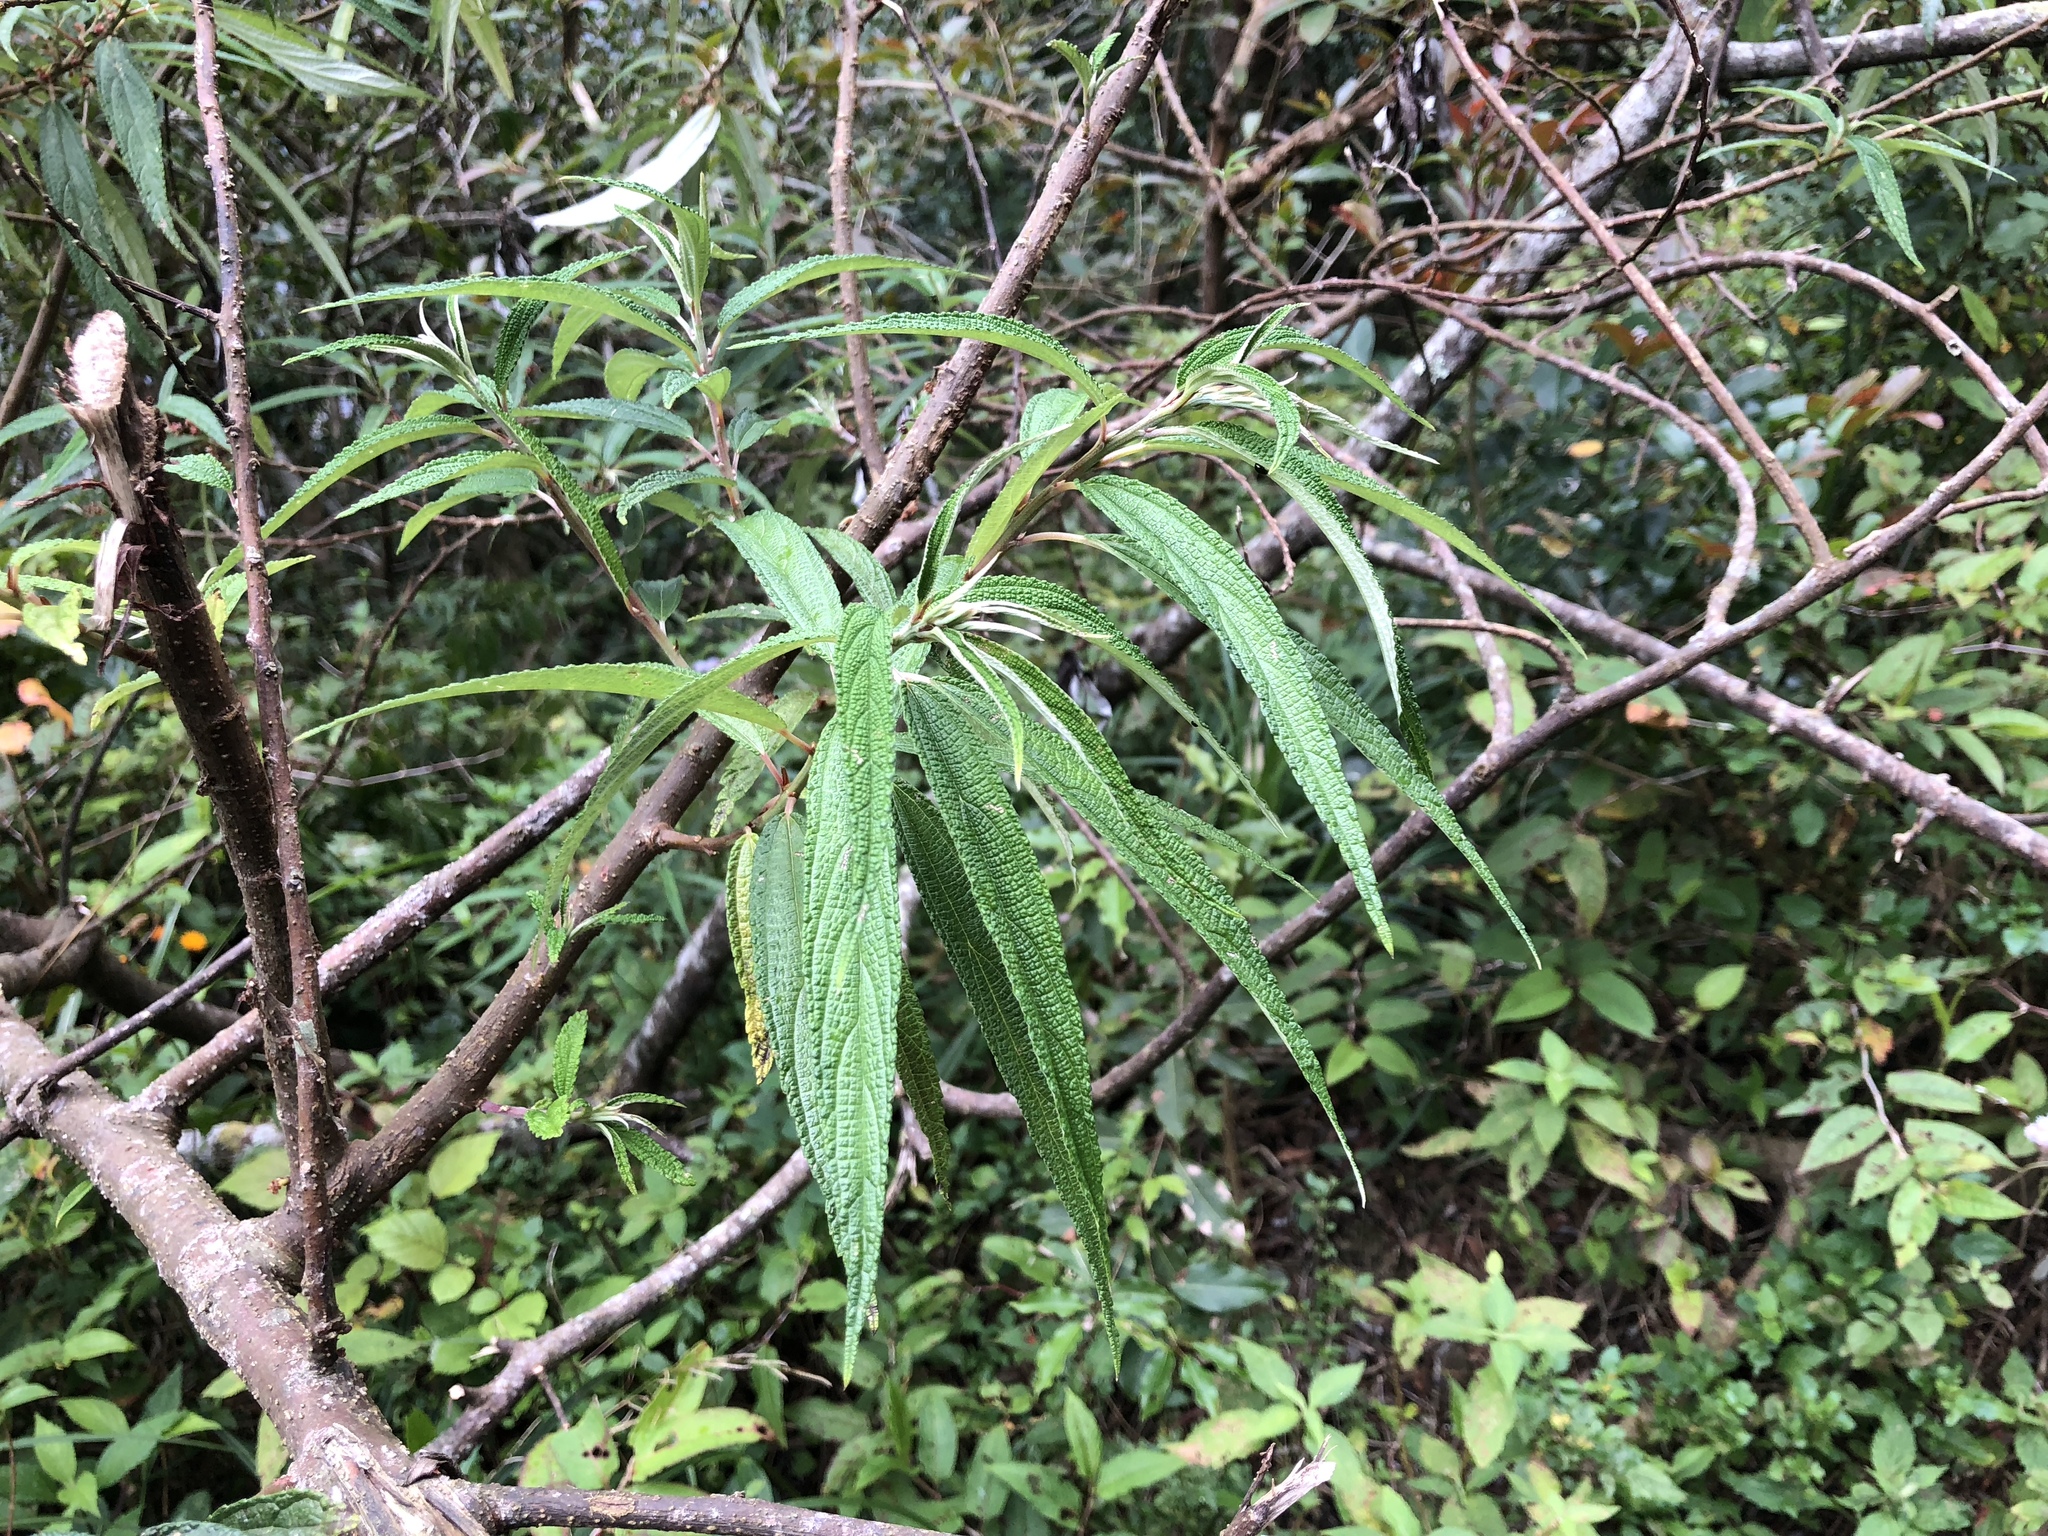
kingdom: Plantae
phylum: Tracheophyta
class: Magnoliopsida
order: Rosales
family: Urticaceae
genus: Debregeasia
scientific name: Debregeasia orientalis
